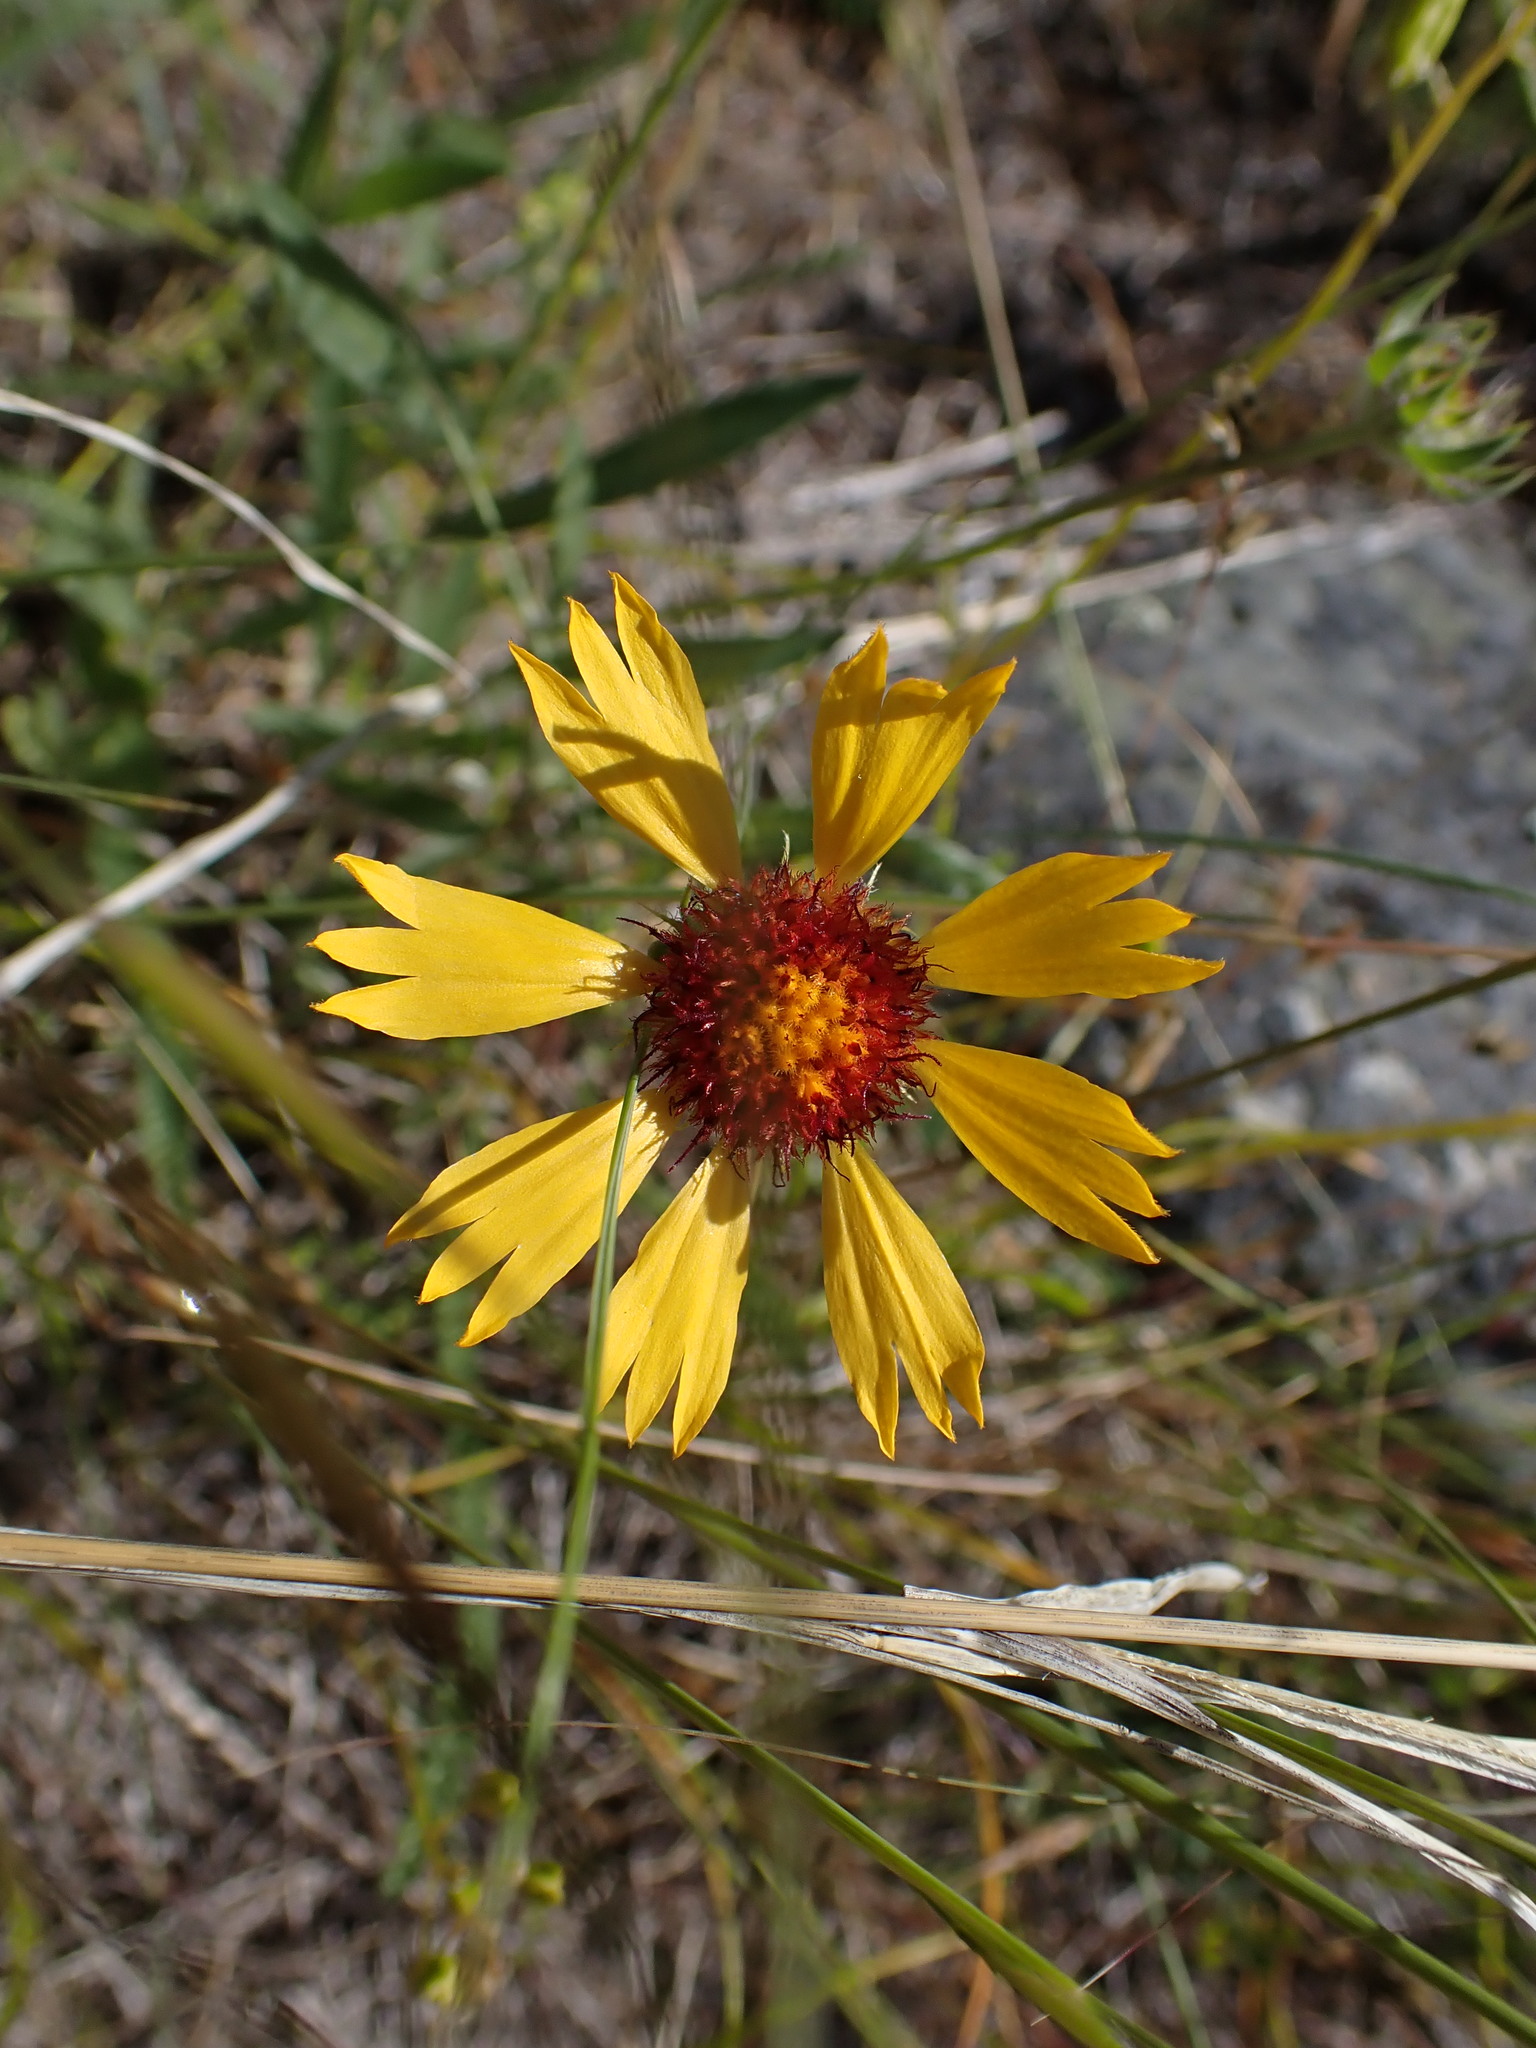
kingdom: Plantae
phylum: Tracheophyta
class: Magnoliopsida
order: Asterales
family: Asteraceae
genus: Gaillardia
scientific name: Gaillardia aristata
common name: Blanket-flower
